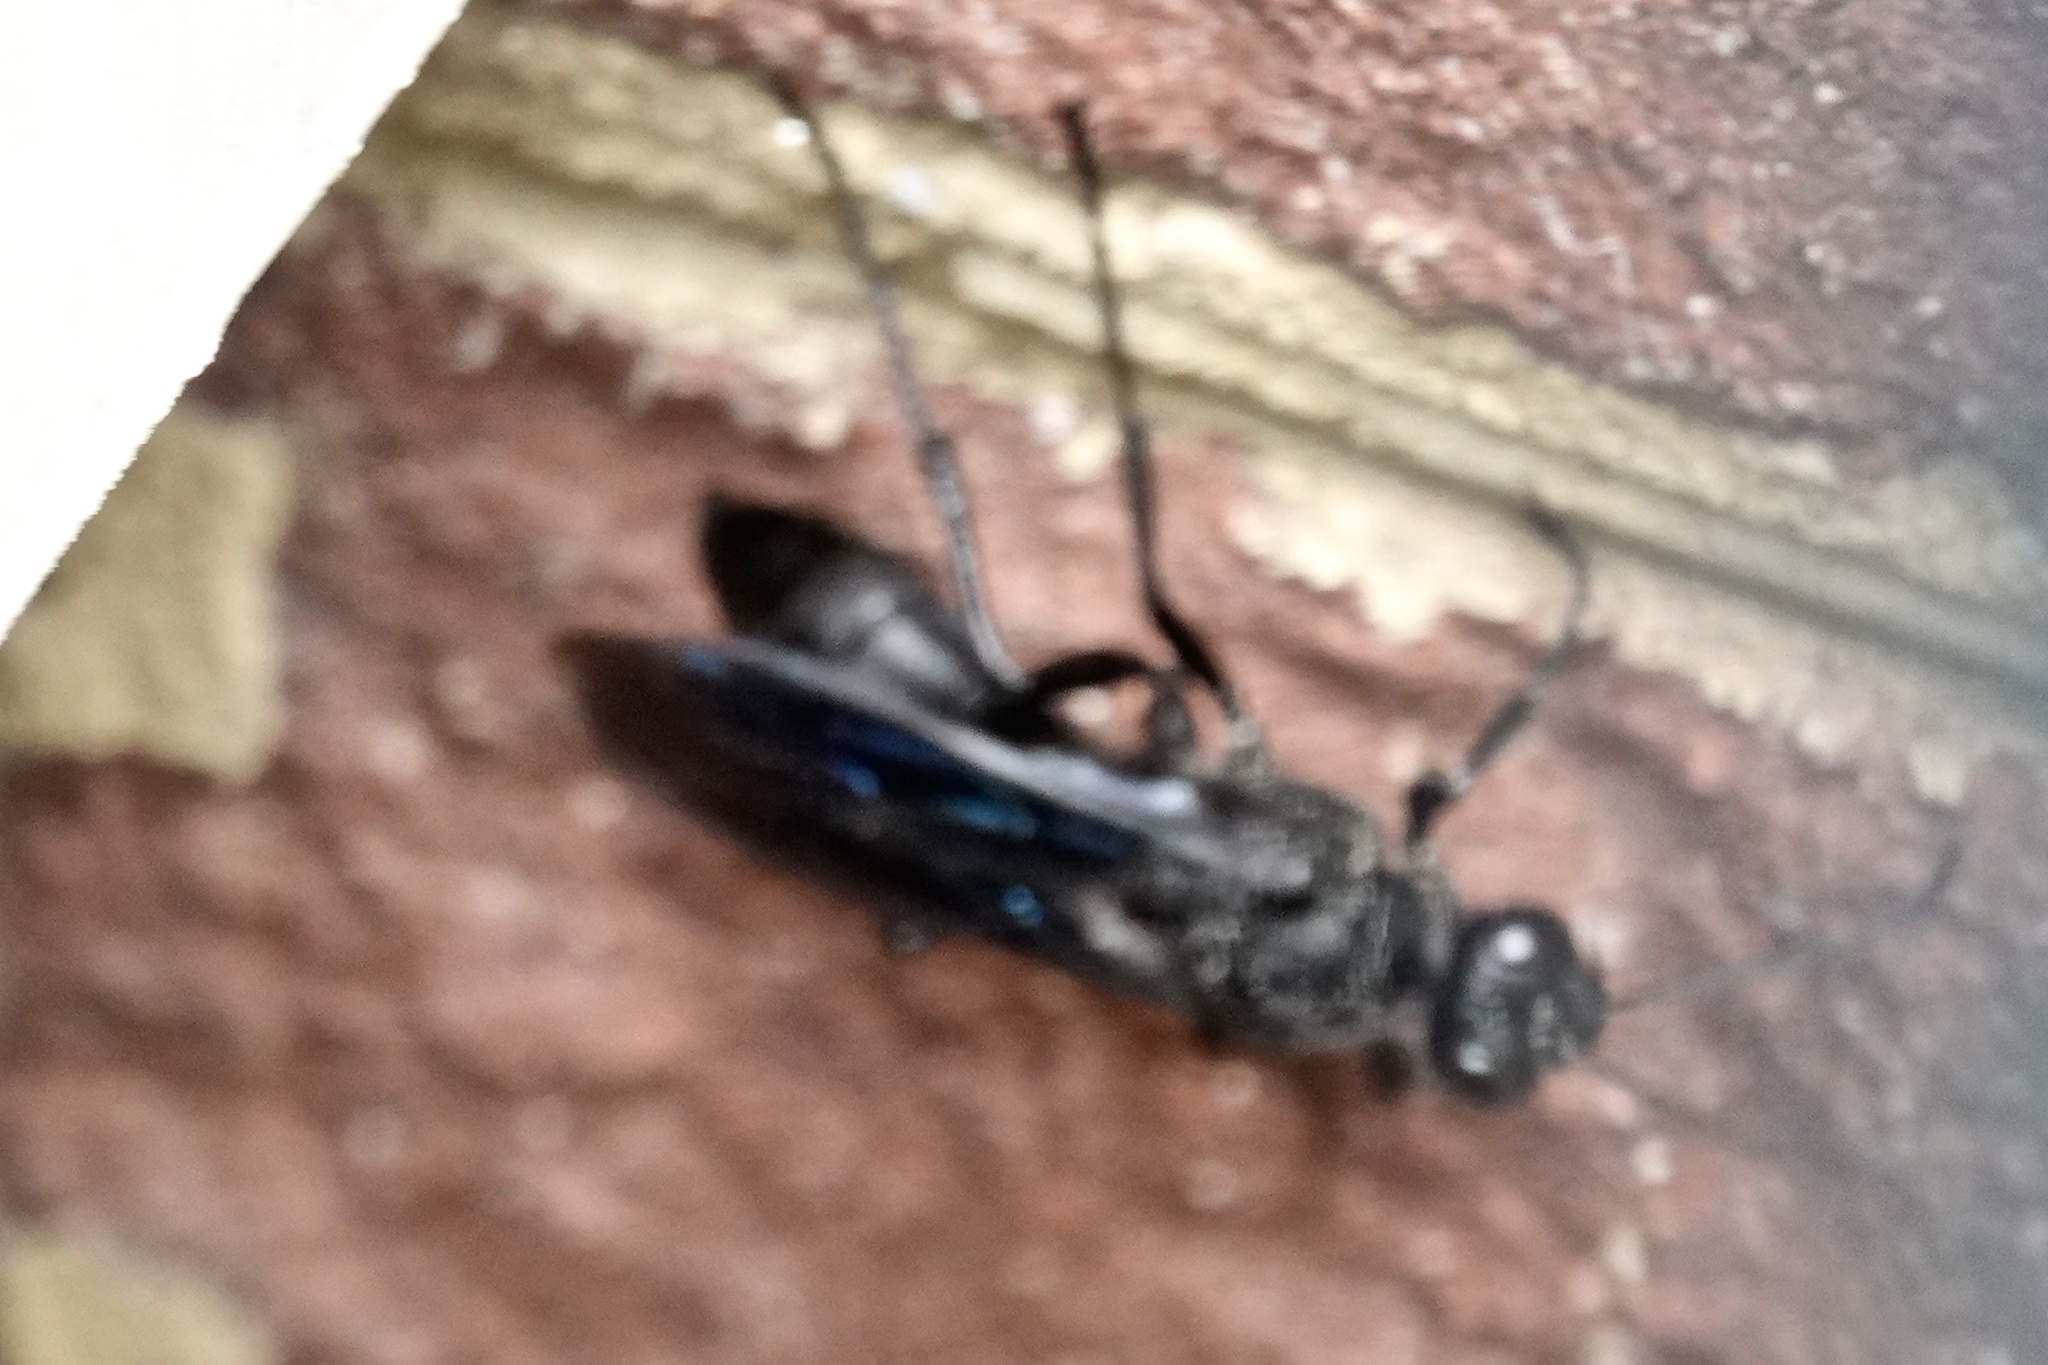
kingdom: Animalia
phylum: Arthropoda
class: Insecta
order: Hymenoptera
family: Sphecidae
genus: Sphex
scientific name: Sphex pensylvanicus
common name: Great black digger wasp
